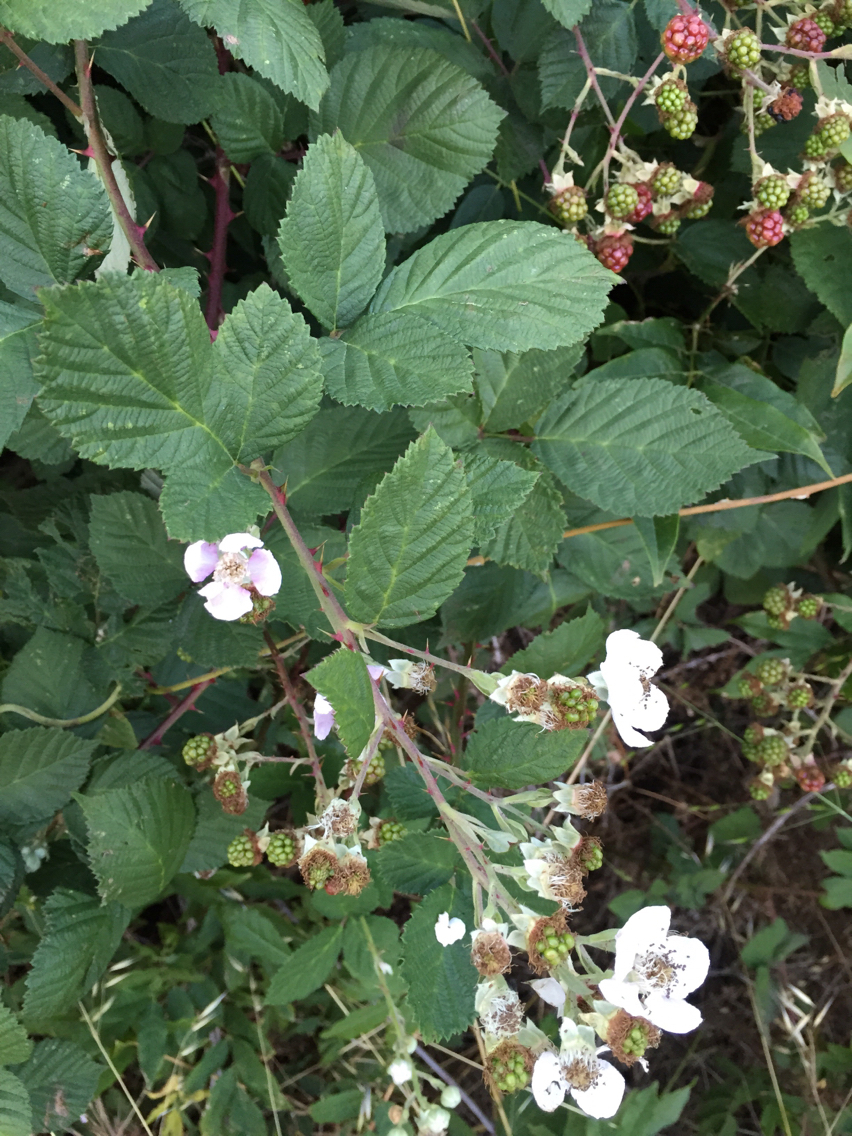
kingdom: Plantae
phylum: Tracheophyta
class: Magnoliopsida
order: Rosales
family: Rosaceae
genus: Rubus
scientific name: Rubus armeniacus
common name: Himalayan blackberry
